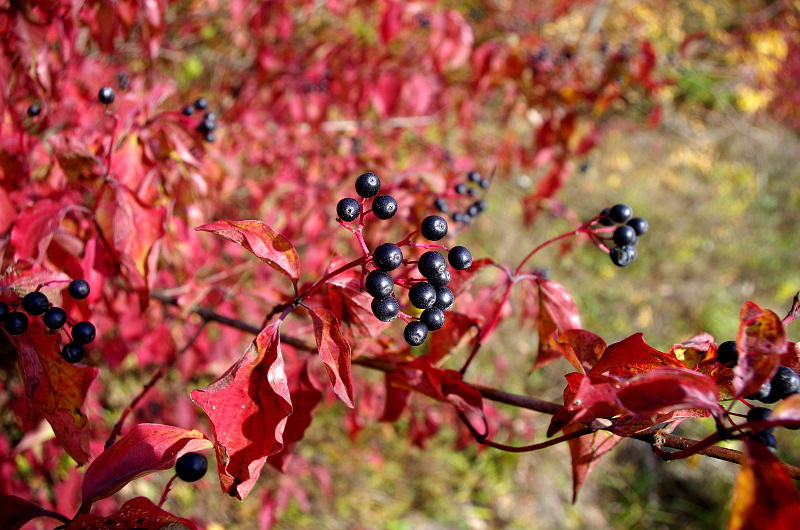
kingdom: Plantae
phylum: Tracheophyta
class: Magnoliopsida
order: Cornales
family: Cornaceae
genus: Cornus
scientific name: Cornus sanguinea
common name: Dogwood
